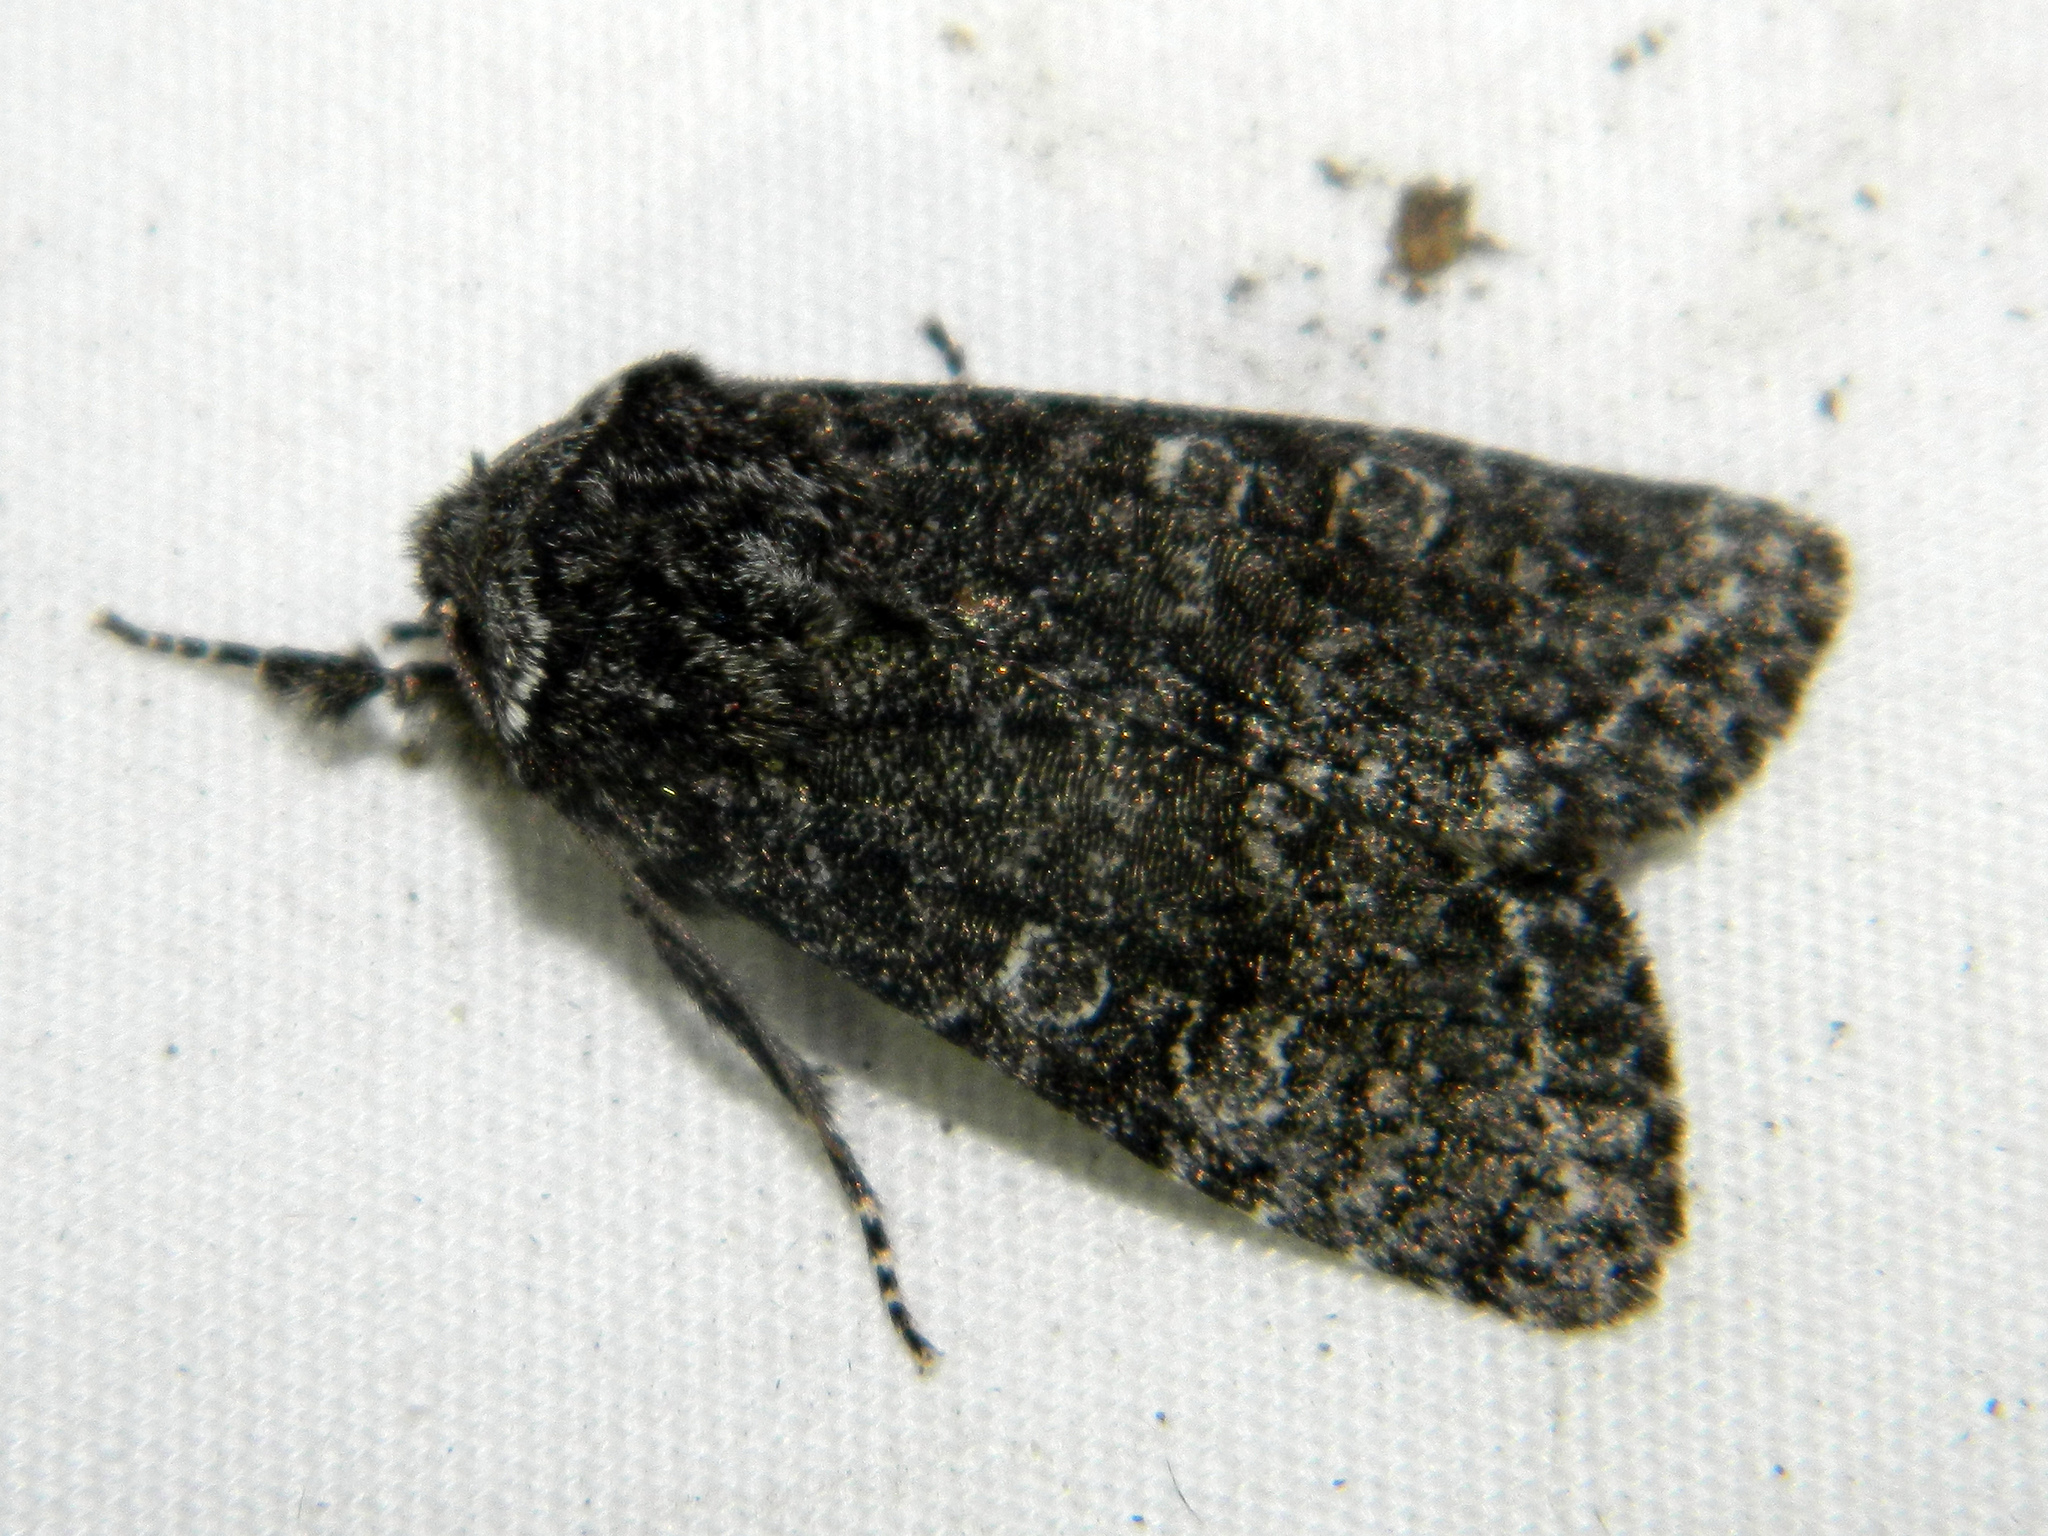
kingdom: Animalia
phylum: Arthropoda
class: Insecta
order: Lepidoptera
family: Noctuidae
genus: Egira
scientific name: Egira dolosa
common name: Lined black aspen cat.
